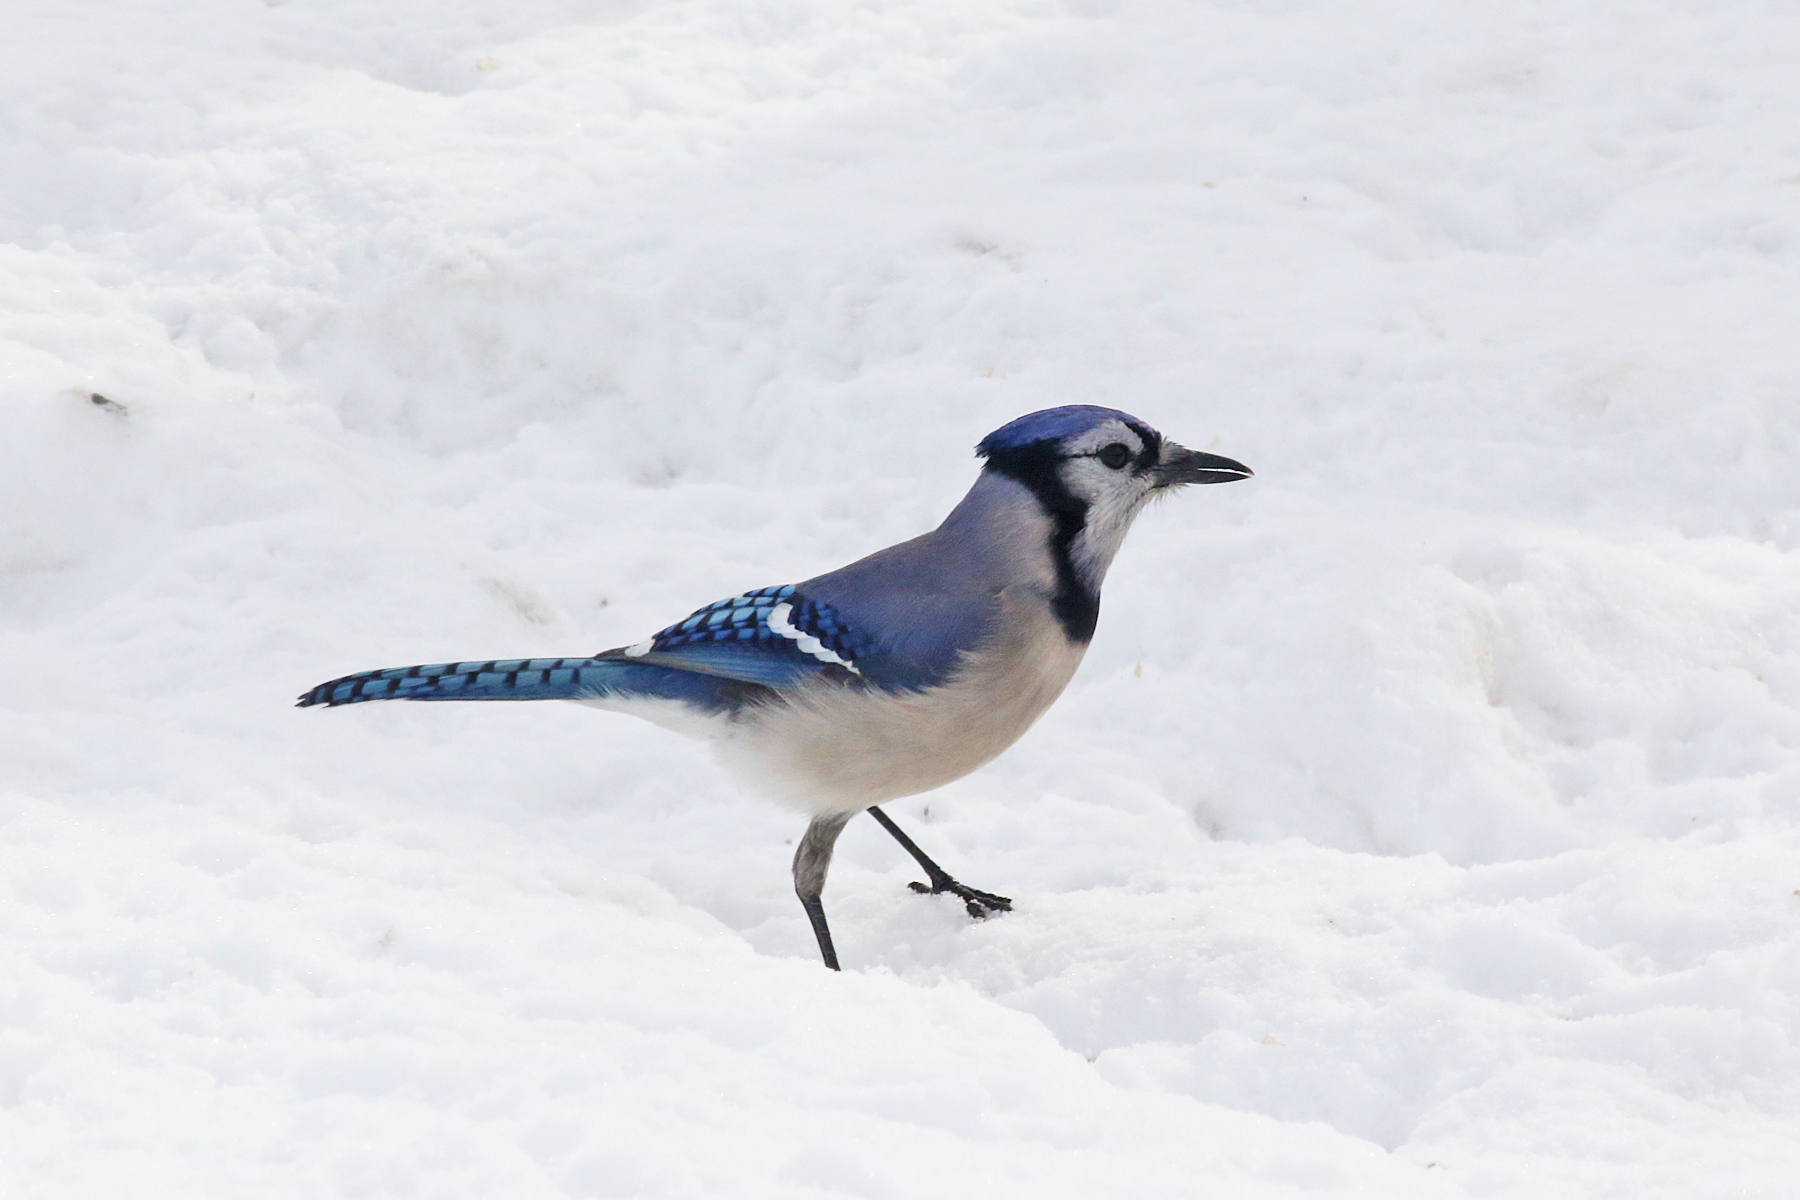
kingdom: Animalia
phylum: Chordata
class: Aves
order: Passeriformes
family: Corvidae
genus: Cyanocitta
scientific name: Cyanocitta cristata
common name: Blue jay
